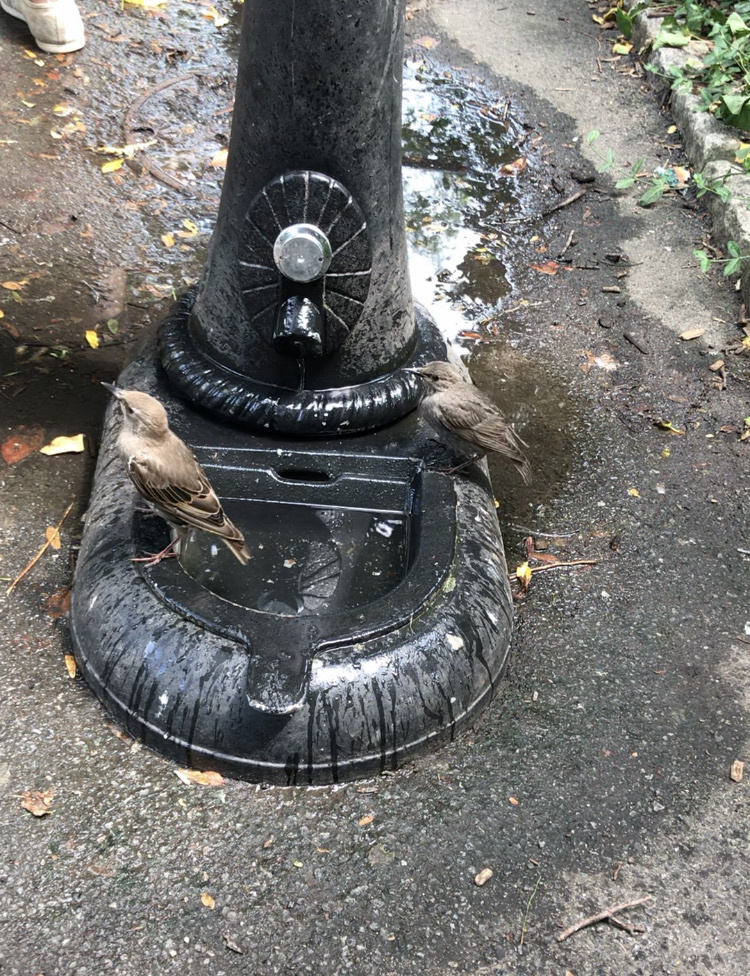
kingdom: Animalia
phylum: Chordata
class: Aves
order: Passeriformes
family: Sturnidae
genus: Sturnus
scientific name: Sturnus vulgaris
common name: Common starling
